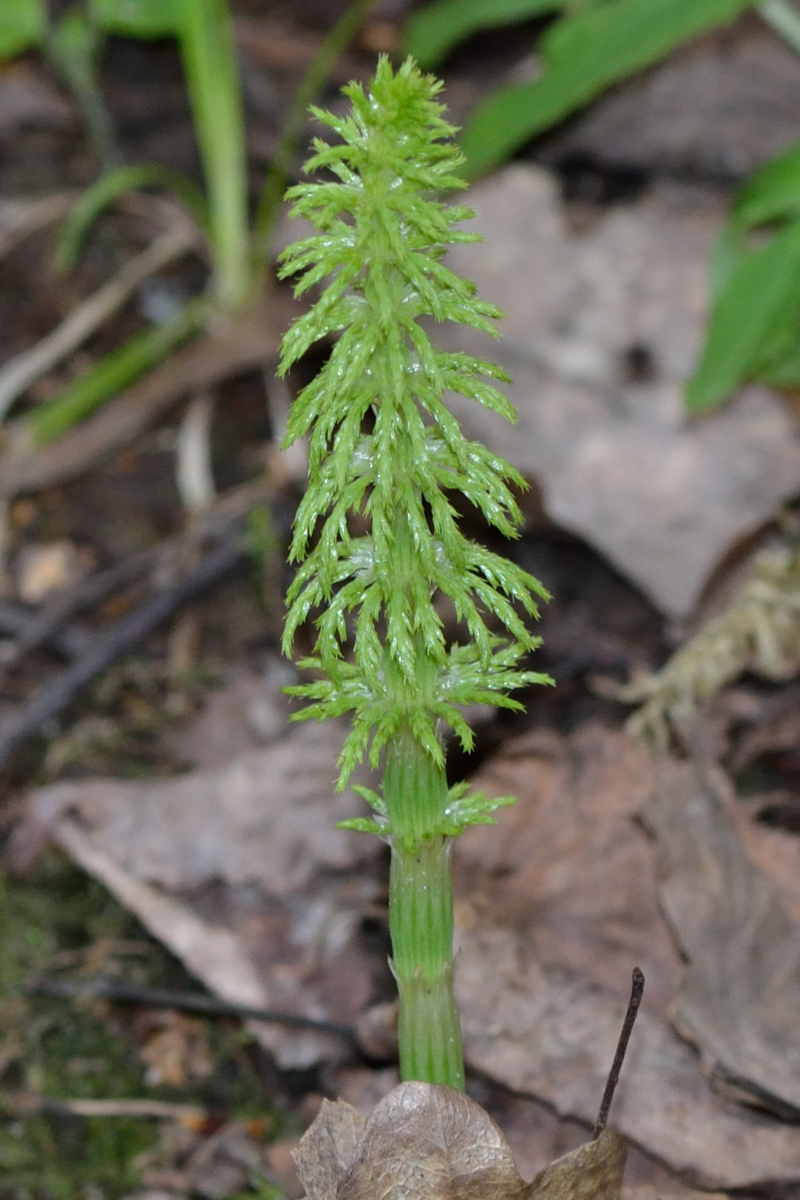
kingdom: Plantae
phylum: Tracheophyta
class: Polypodiopsida
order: Equisetales
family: Equisetaceae
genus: Equisetum
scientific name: Equisetum sylvaticum
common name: Wood horsetail
